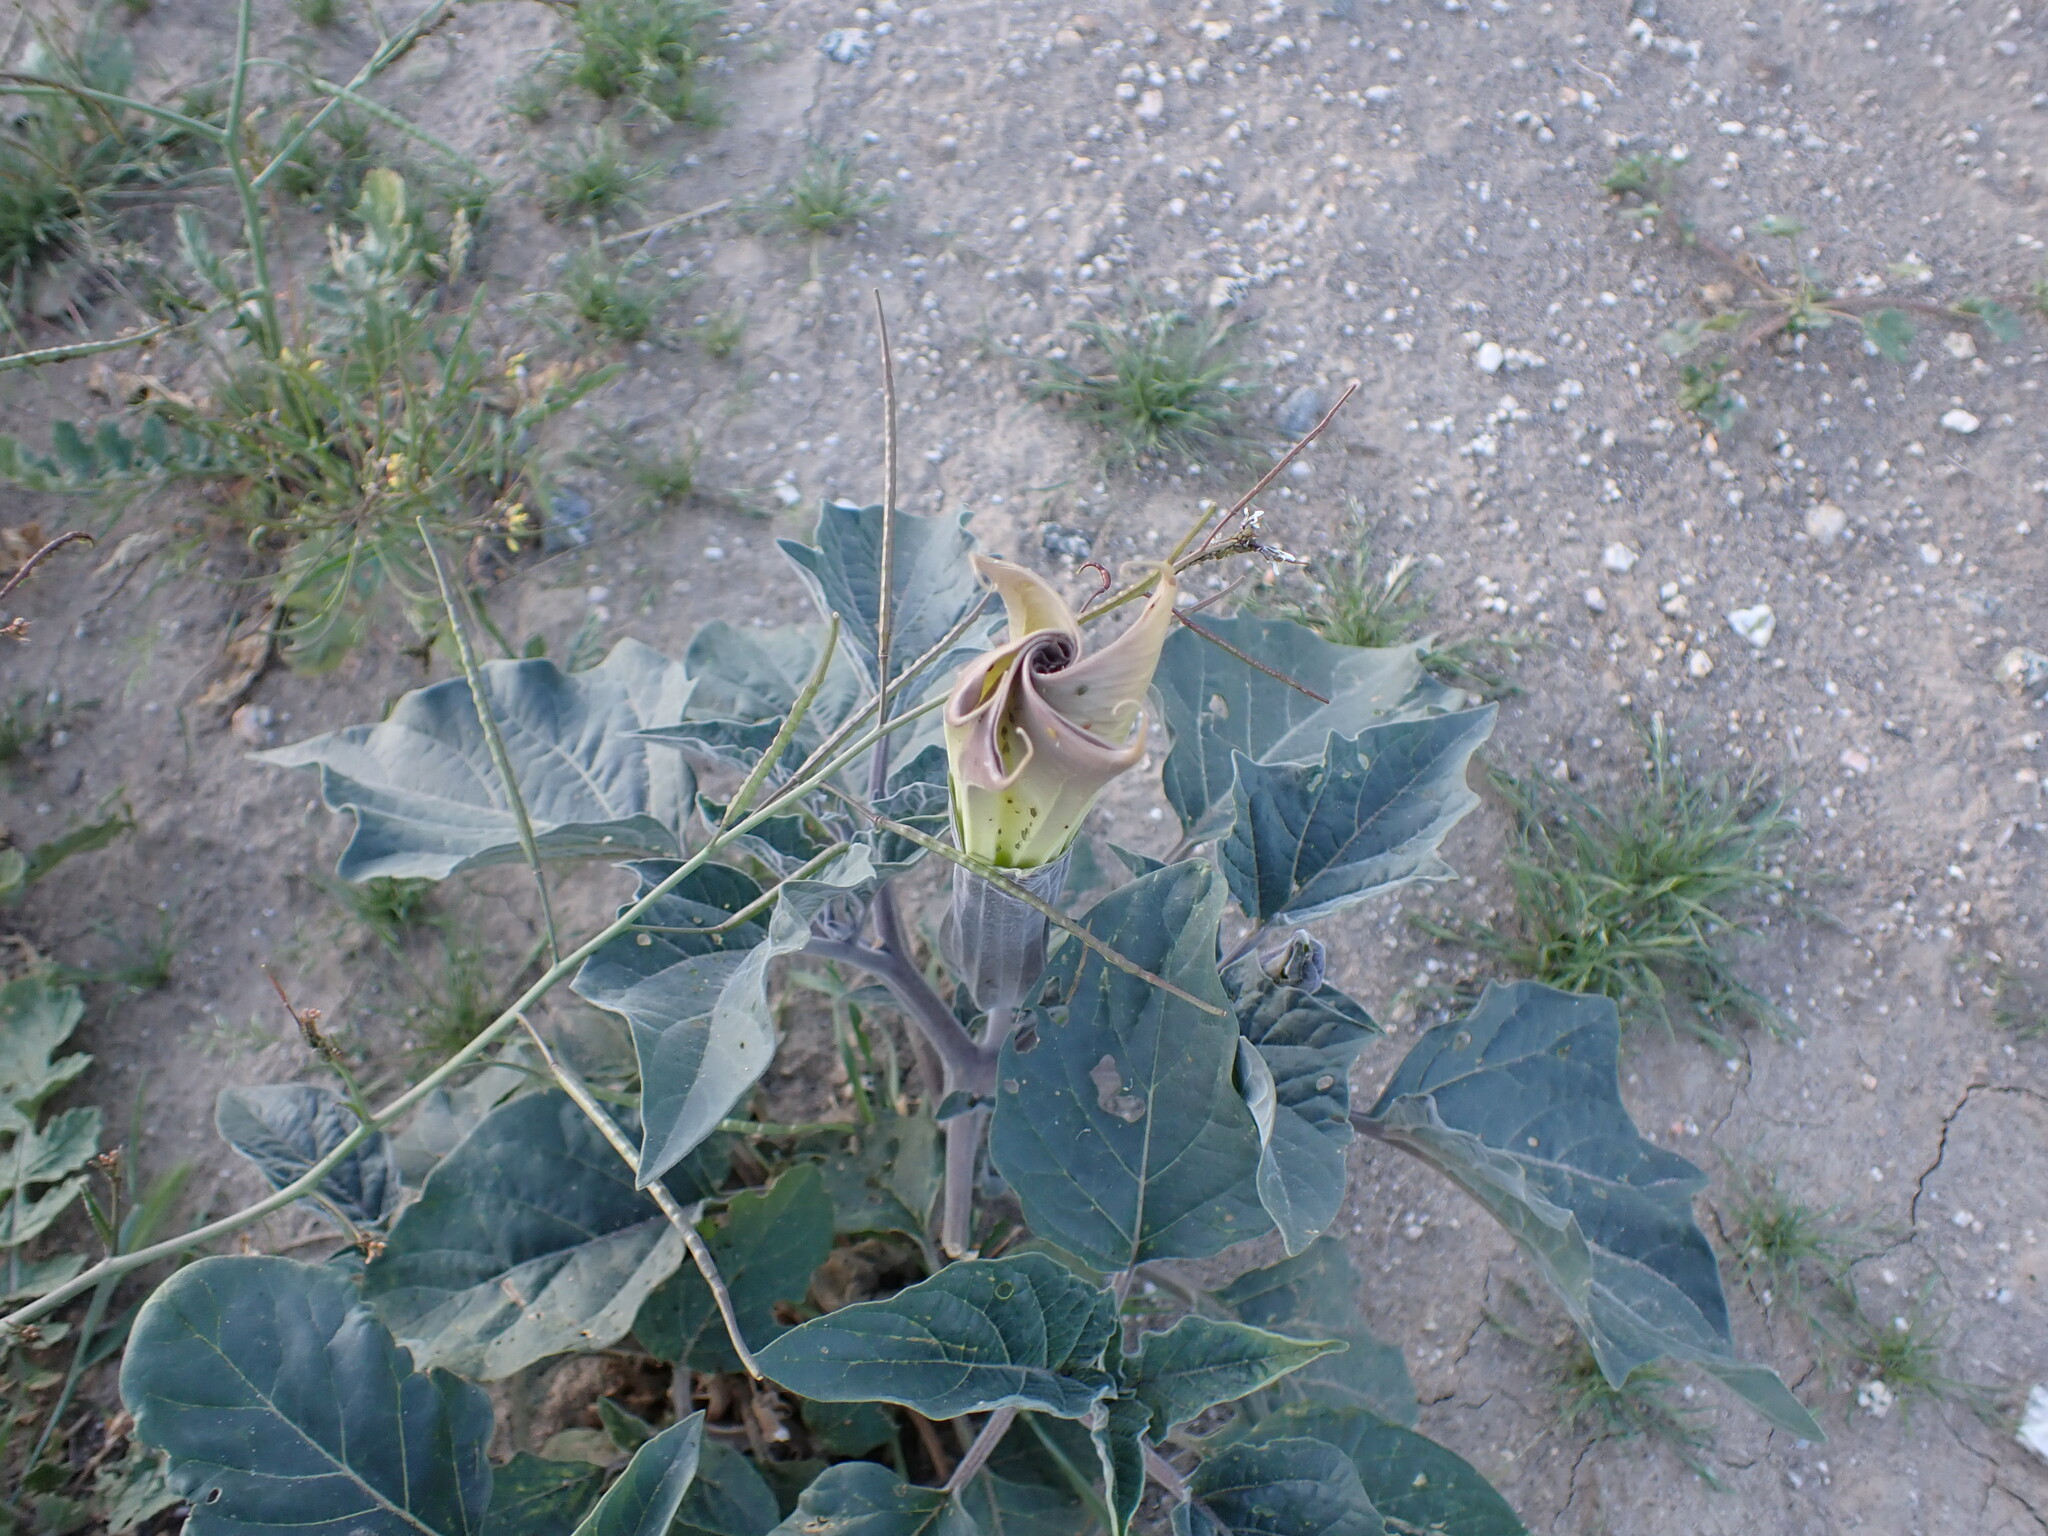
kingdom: Plantae
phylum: Tracheophyta
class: Magnoliopsida
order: Solanales
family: Solanaceae
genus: Datura
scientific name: Datura wrightii
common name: Sacred thorn-apple
